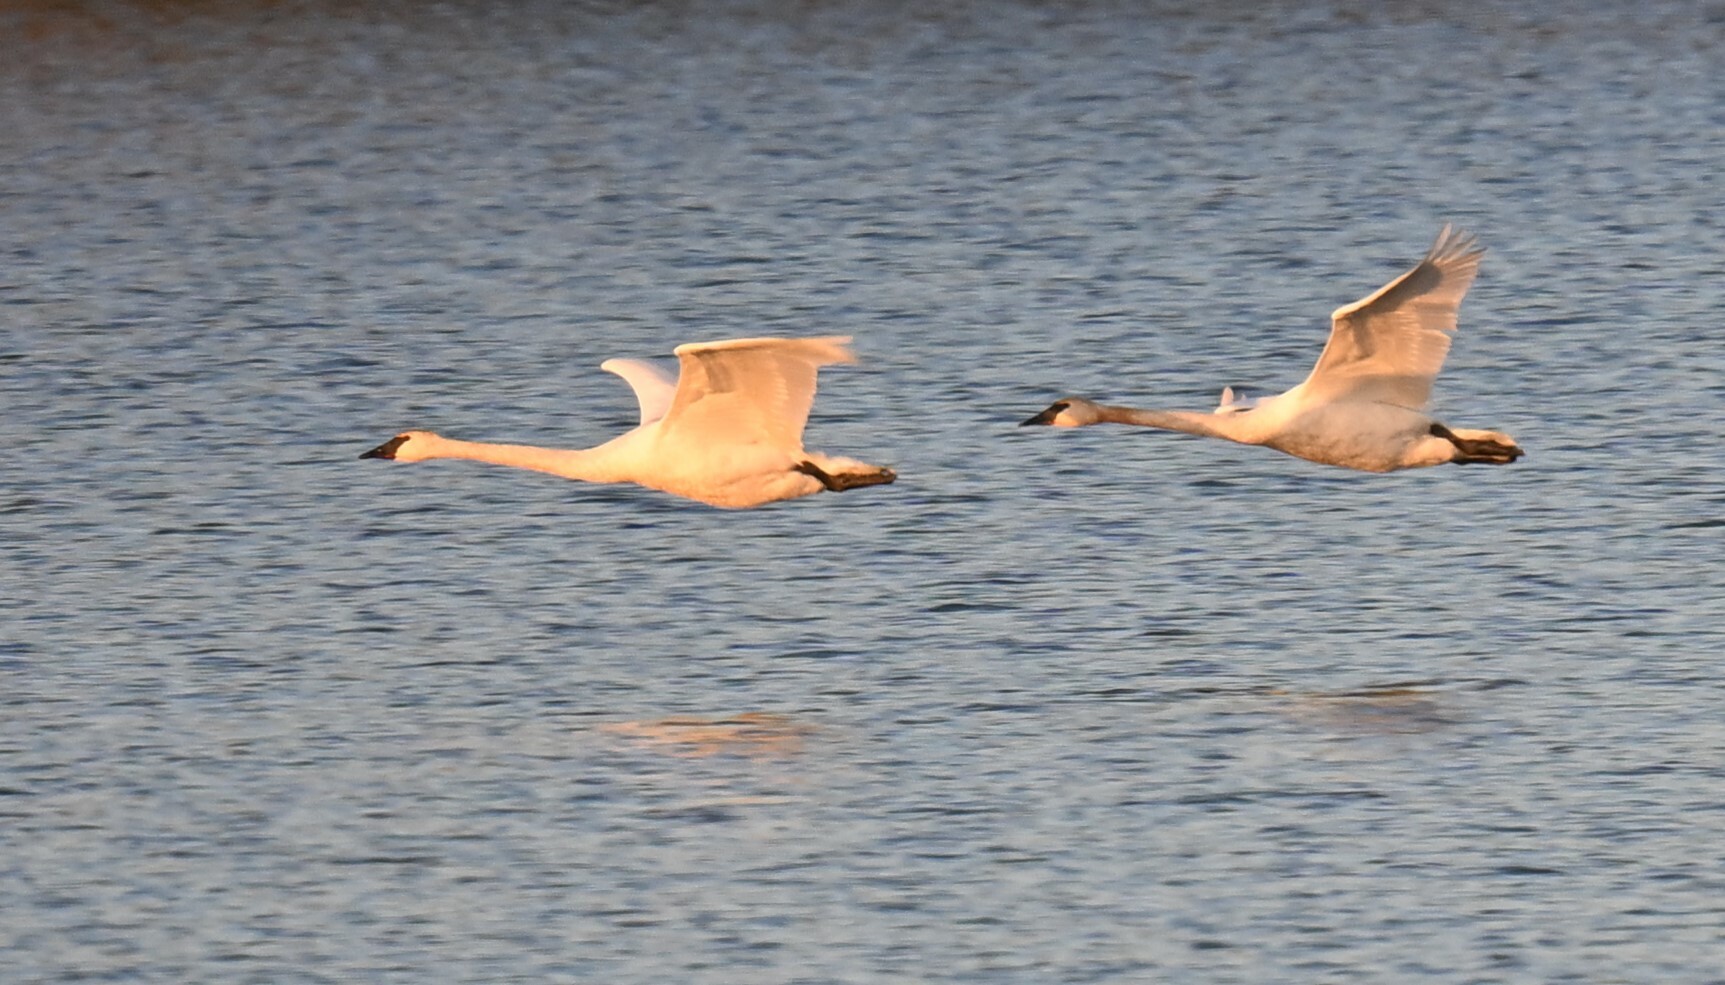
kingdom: Animalia
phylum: Chordata
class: Aves
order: Anseriformes
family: Anatidae
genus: Cygnus
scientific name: Cygnus buccinator
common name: Trumpeter swan
